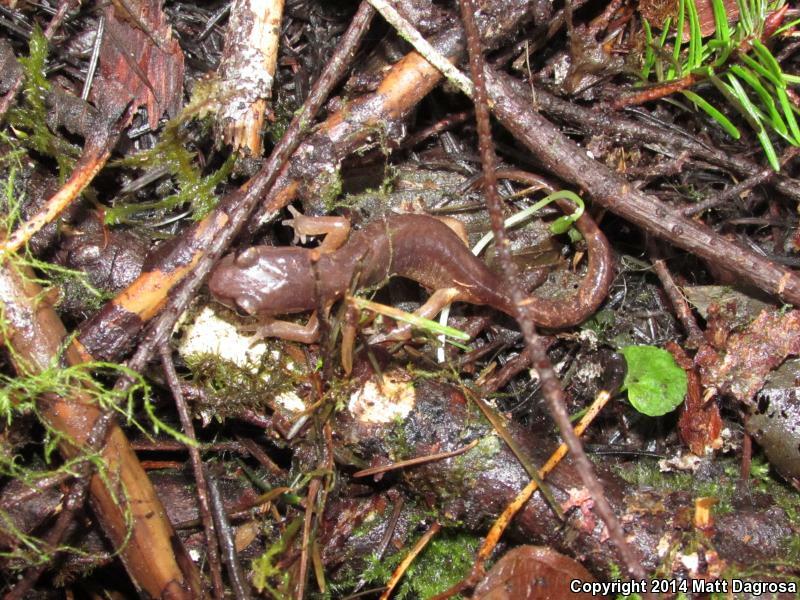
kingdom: Animalia
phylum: Chordata
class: Amphibia
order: Caudata
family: Plethodontidae
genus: Ensatina
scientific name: Ensatina eschscholtzii
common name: Ensatina
